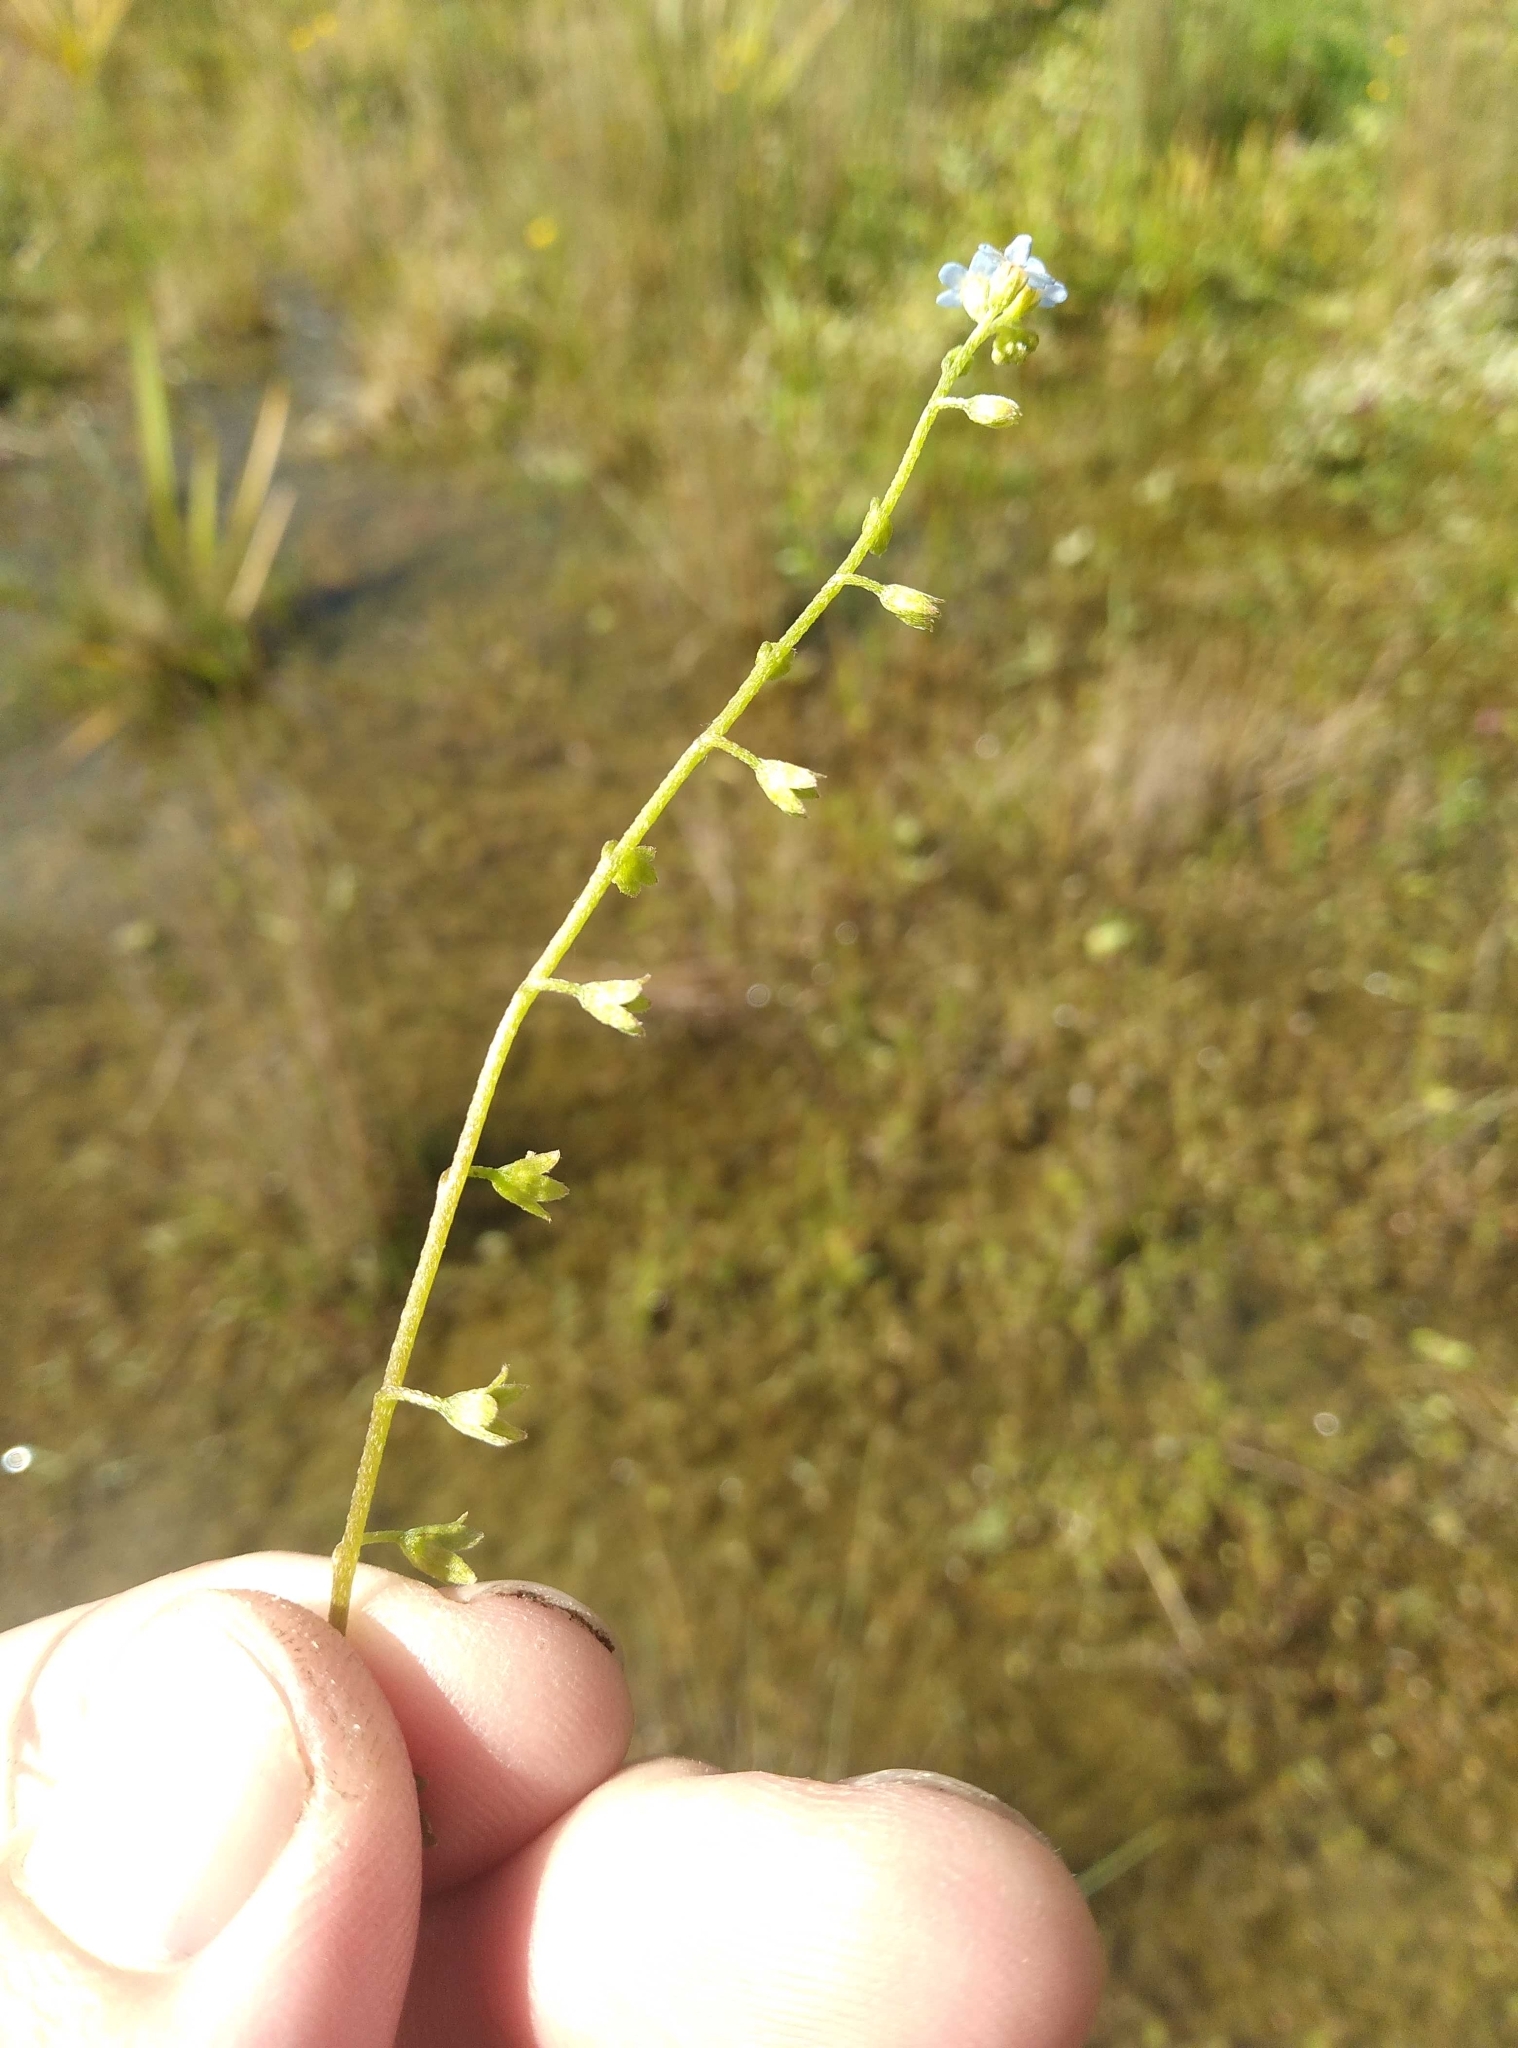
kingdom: Plantae
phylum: Tracheophyta
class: Magnoliopsida
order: Boraginales
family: Boraginaceae
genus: Myosotis
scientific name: Myosotis laxa
